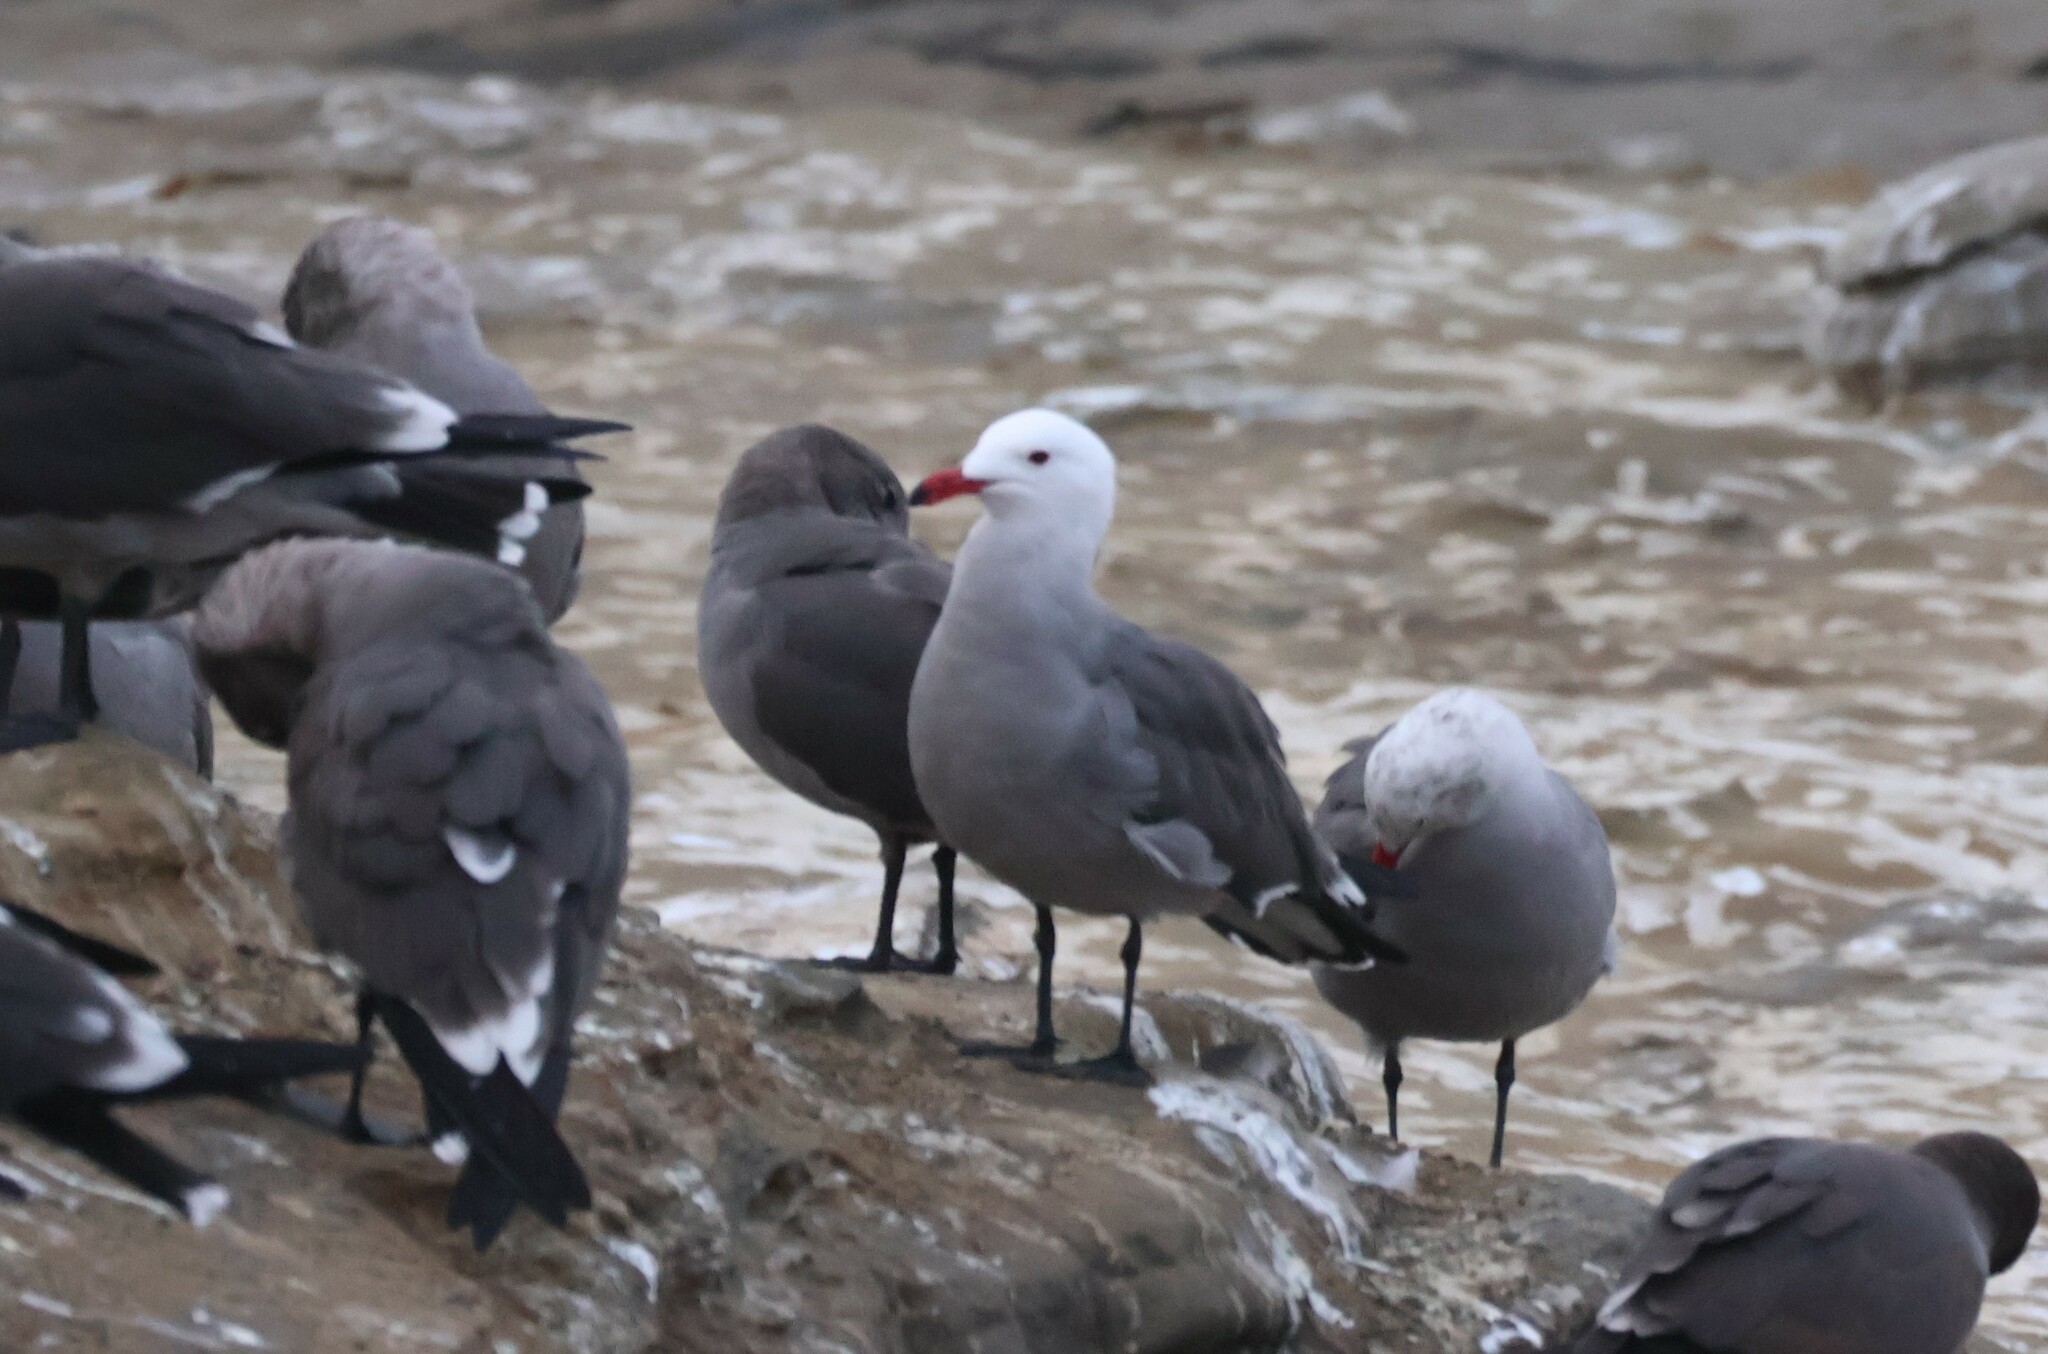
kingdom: Animalia
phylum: Chordata
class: Aves
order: Charadriiformes
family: Laridae
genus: Larus
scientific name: Larus heermanni
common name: Heermann's gull
